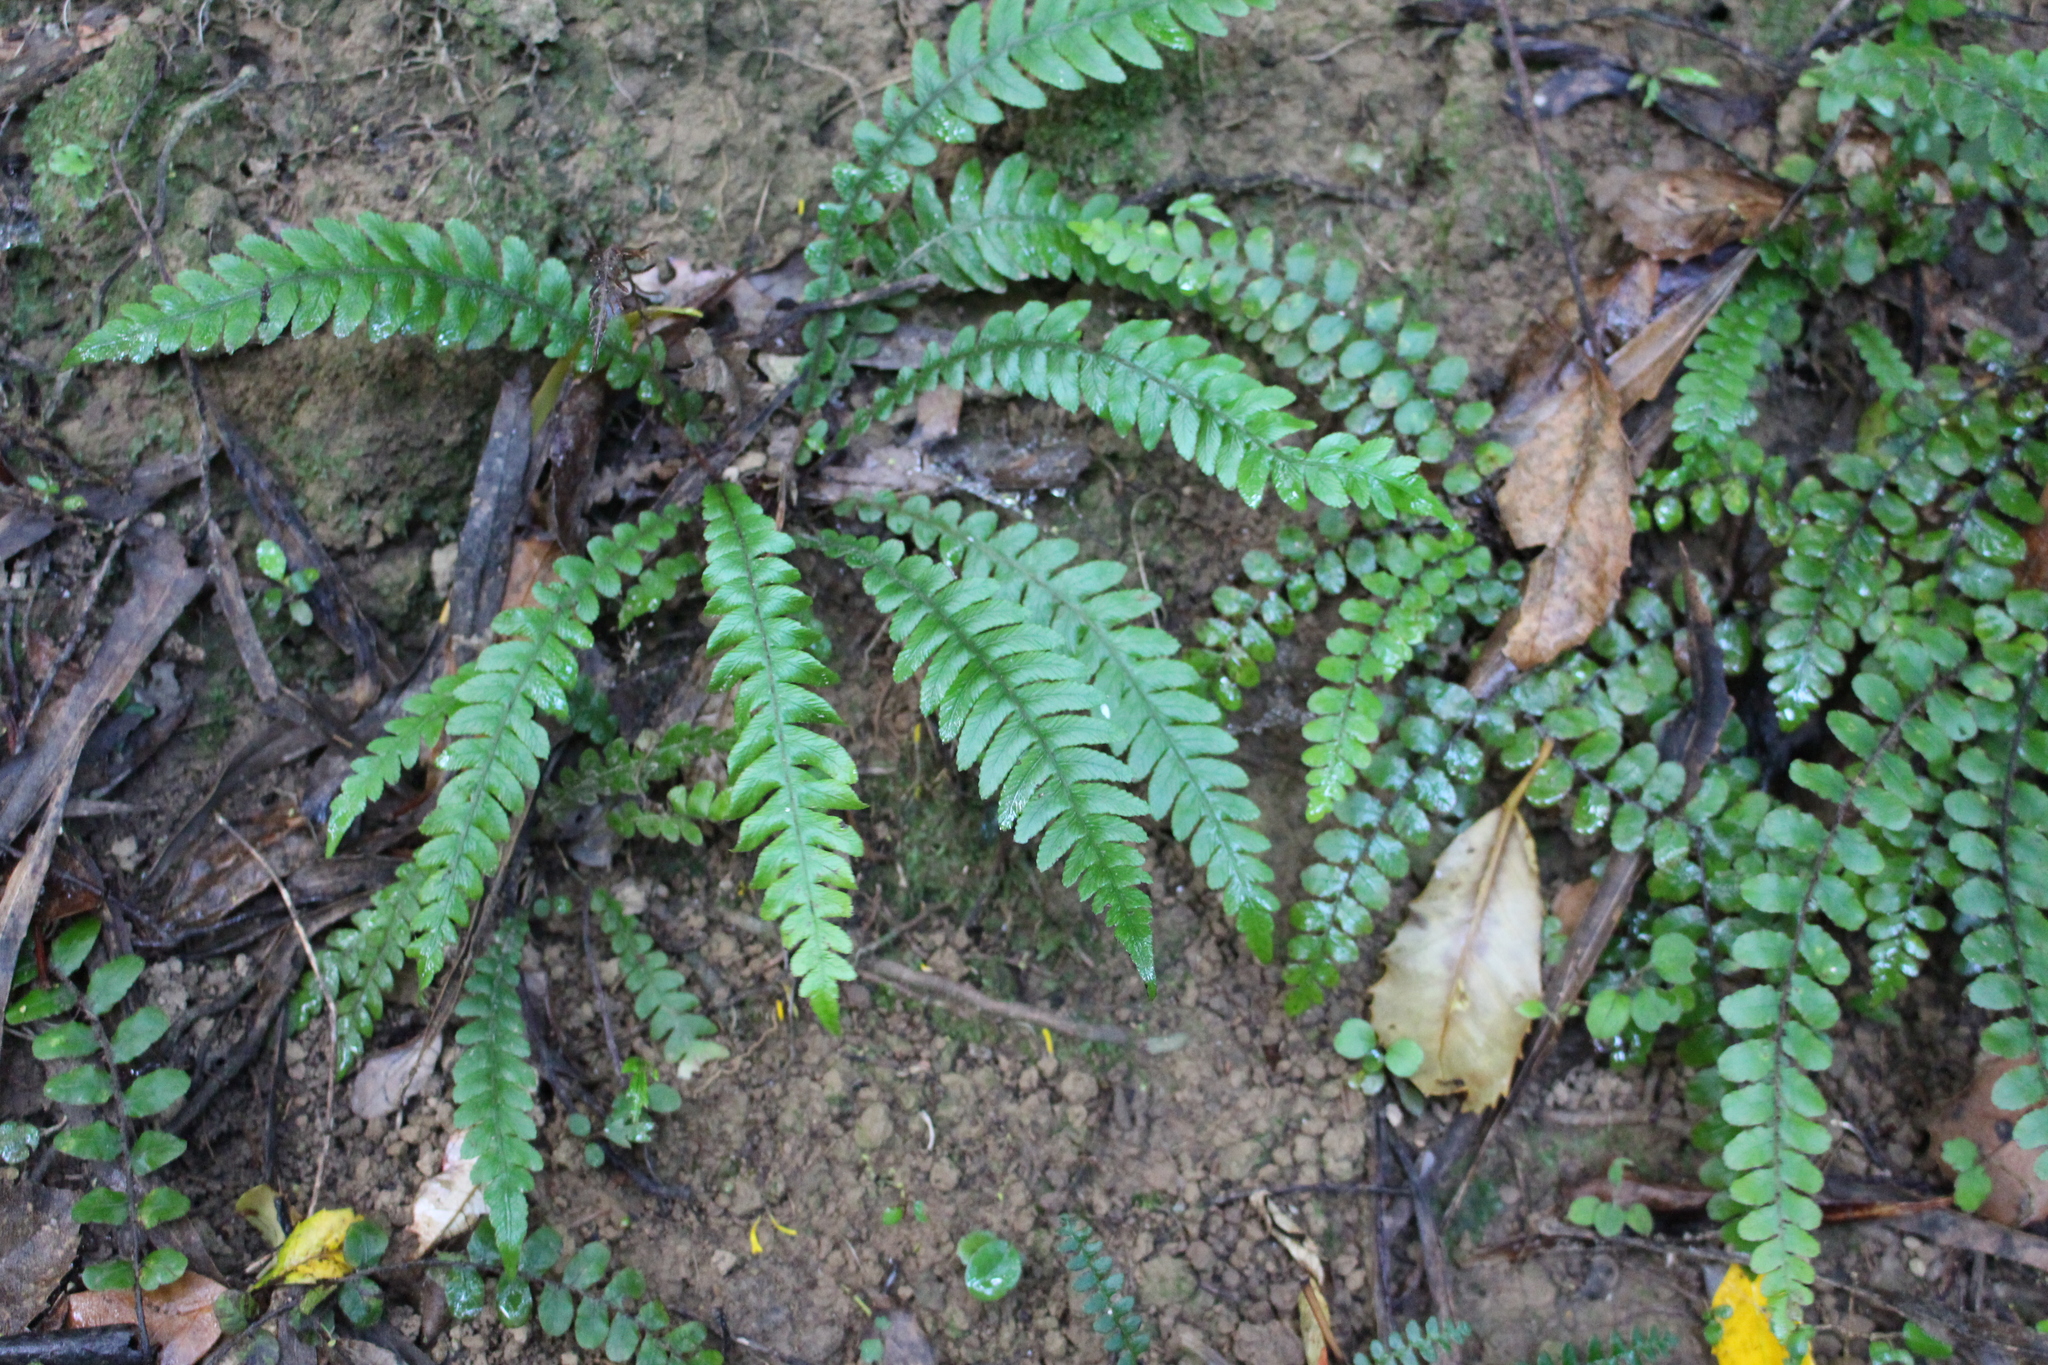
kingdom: Plantae
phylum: Tracheophyta
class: Polypodiopsida
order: Polypodiales
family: Blechnaceae
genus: Austroblechnum
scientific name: Austroblechnum lanceolatum
